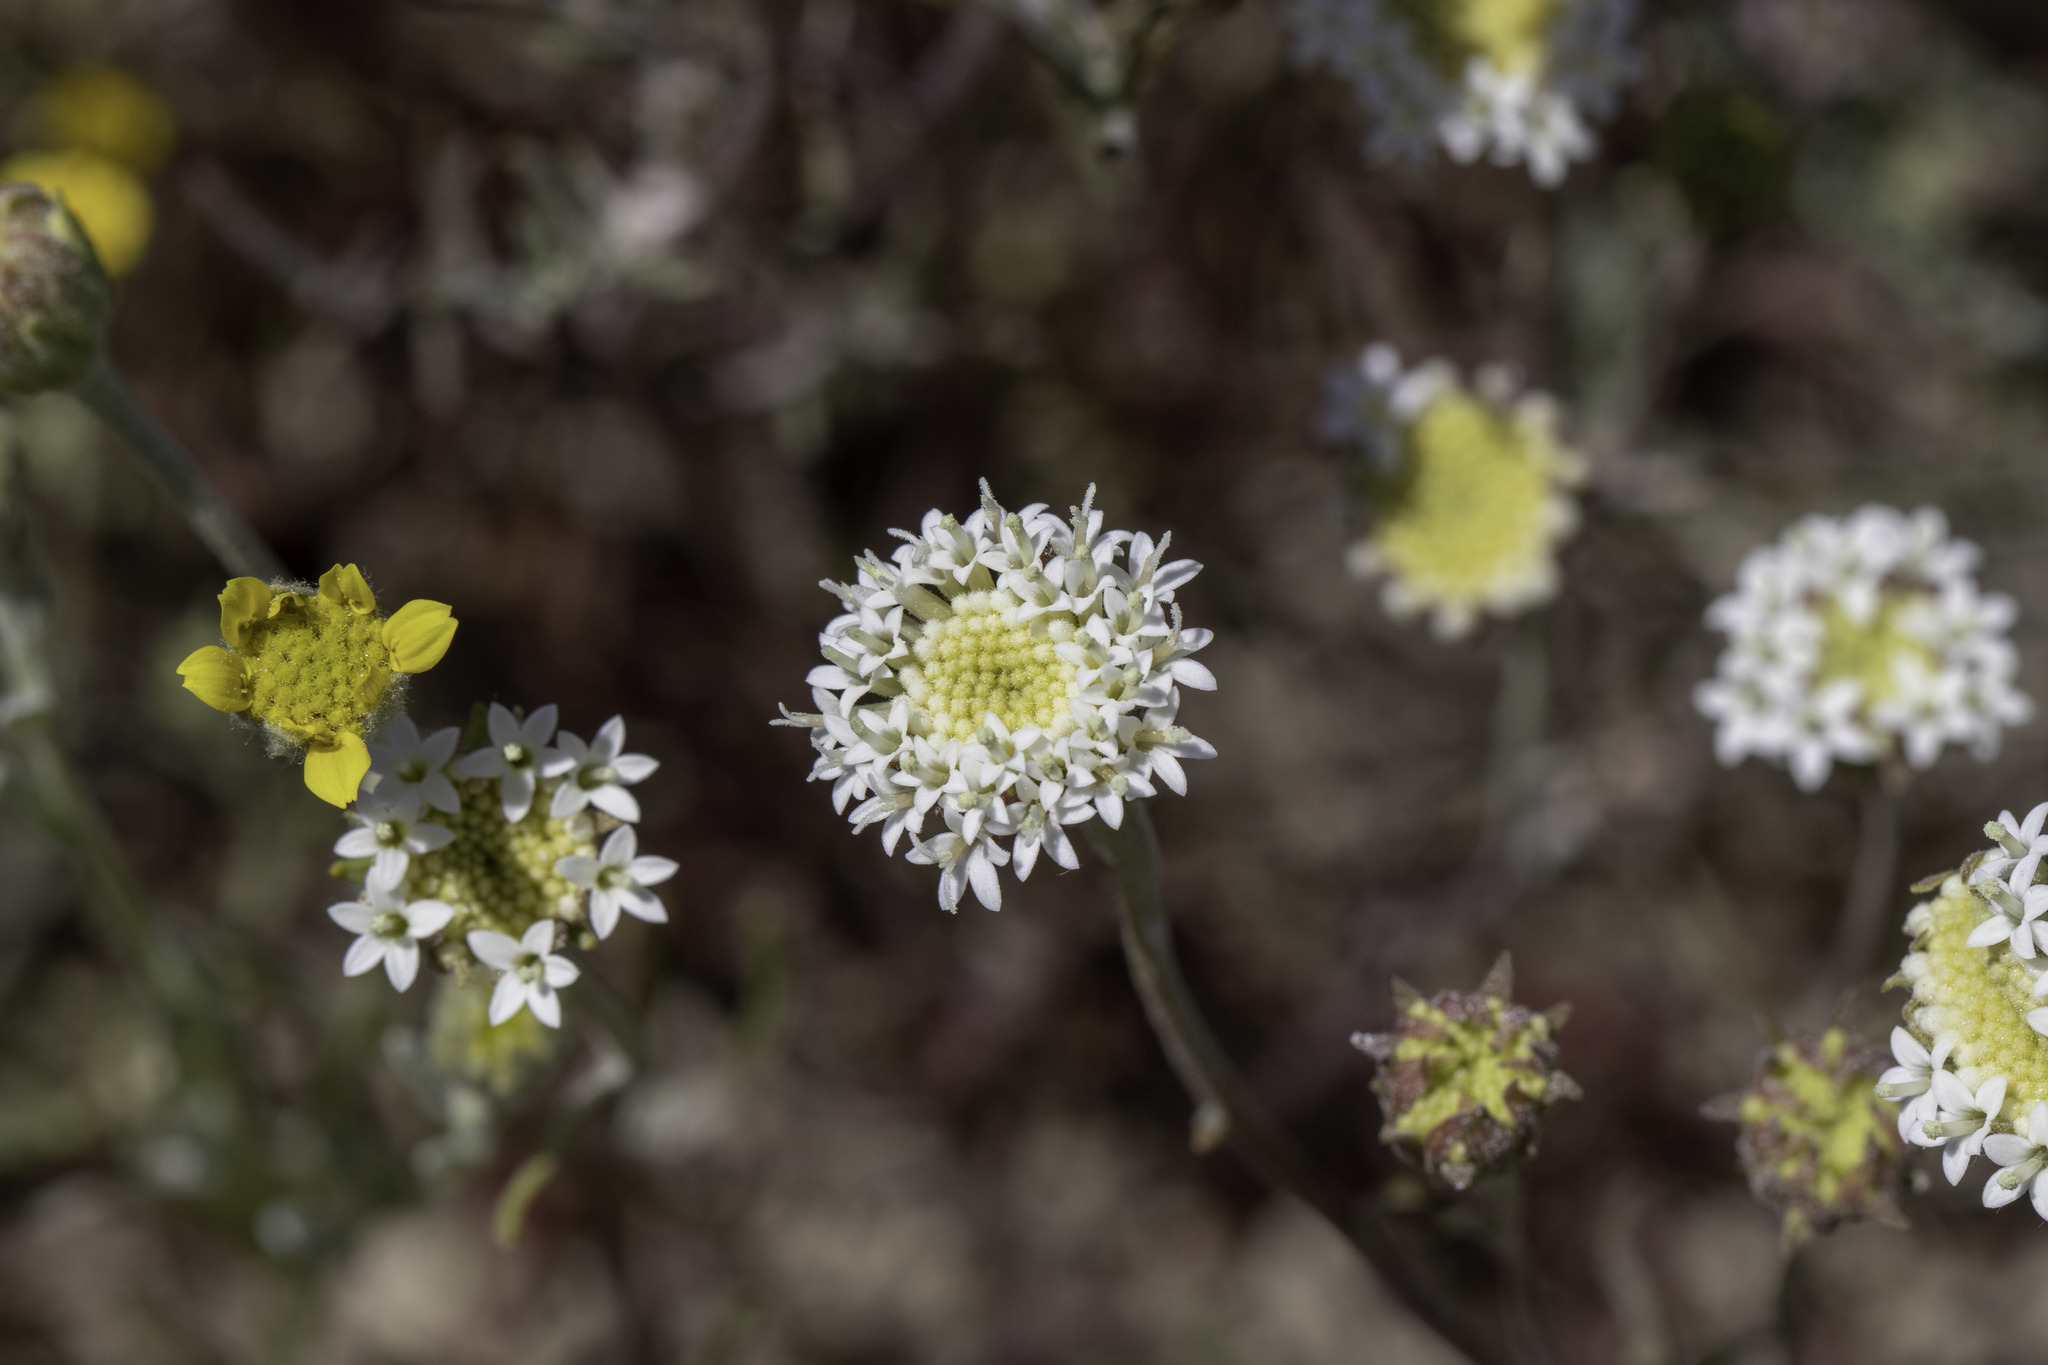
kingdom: Plantae
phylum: Tracheophyta
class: Magnoliopsida
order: Asterales
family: Asteraceae
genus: Chaenactis
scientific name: Chaenactis stevioides
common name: Desert pincushion
